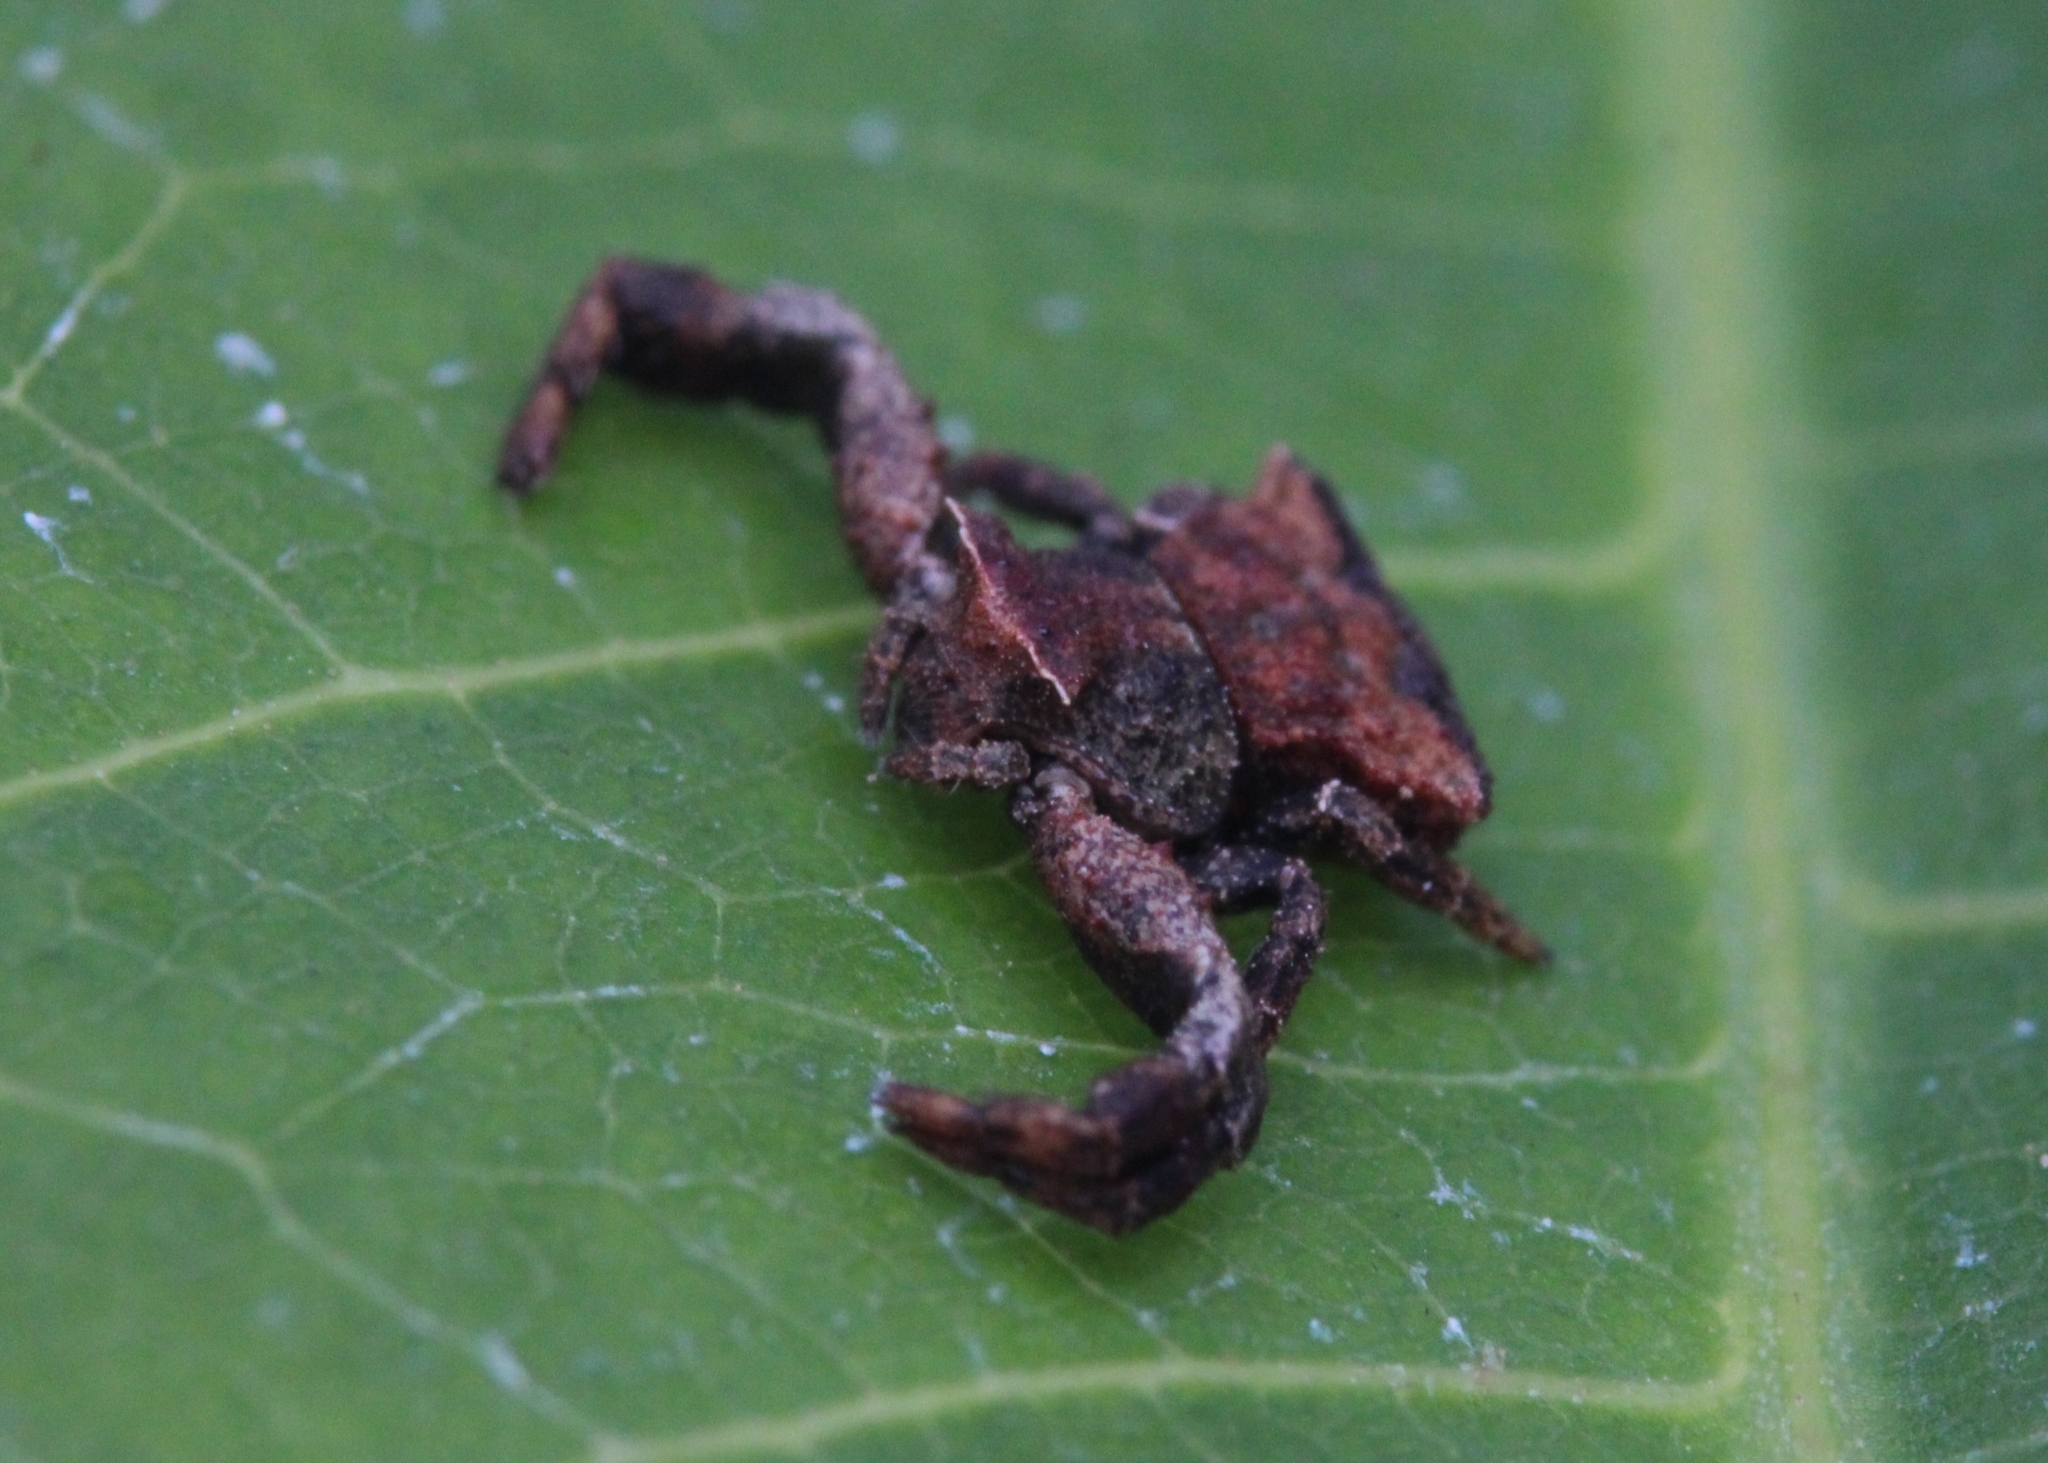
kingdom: Animalia
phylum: Arthropoda
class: Arachnida
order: Araneae
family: Thomisidae
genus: Thomisus
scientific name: Thomisus scrupeus
